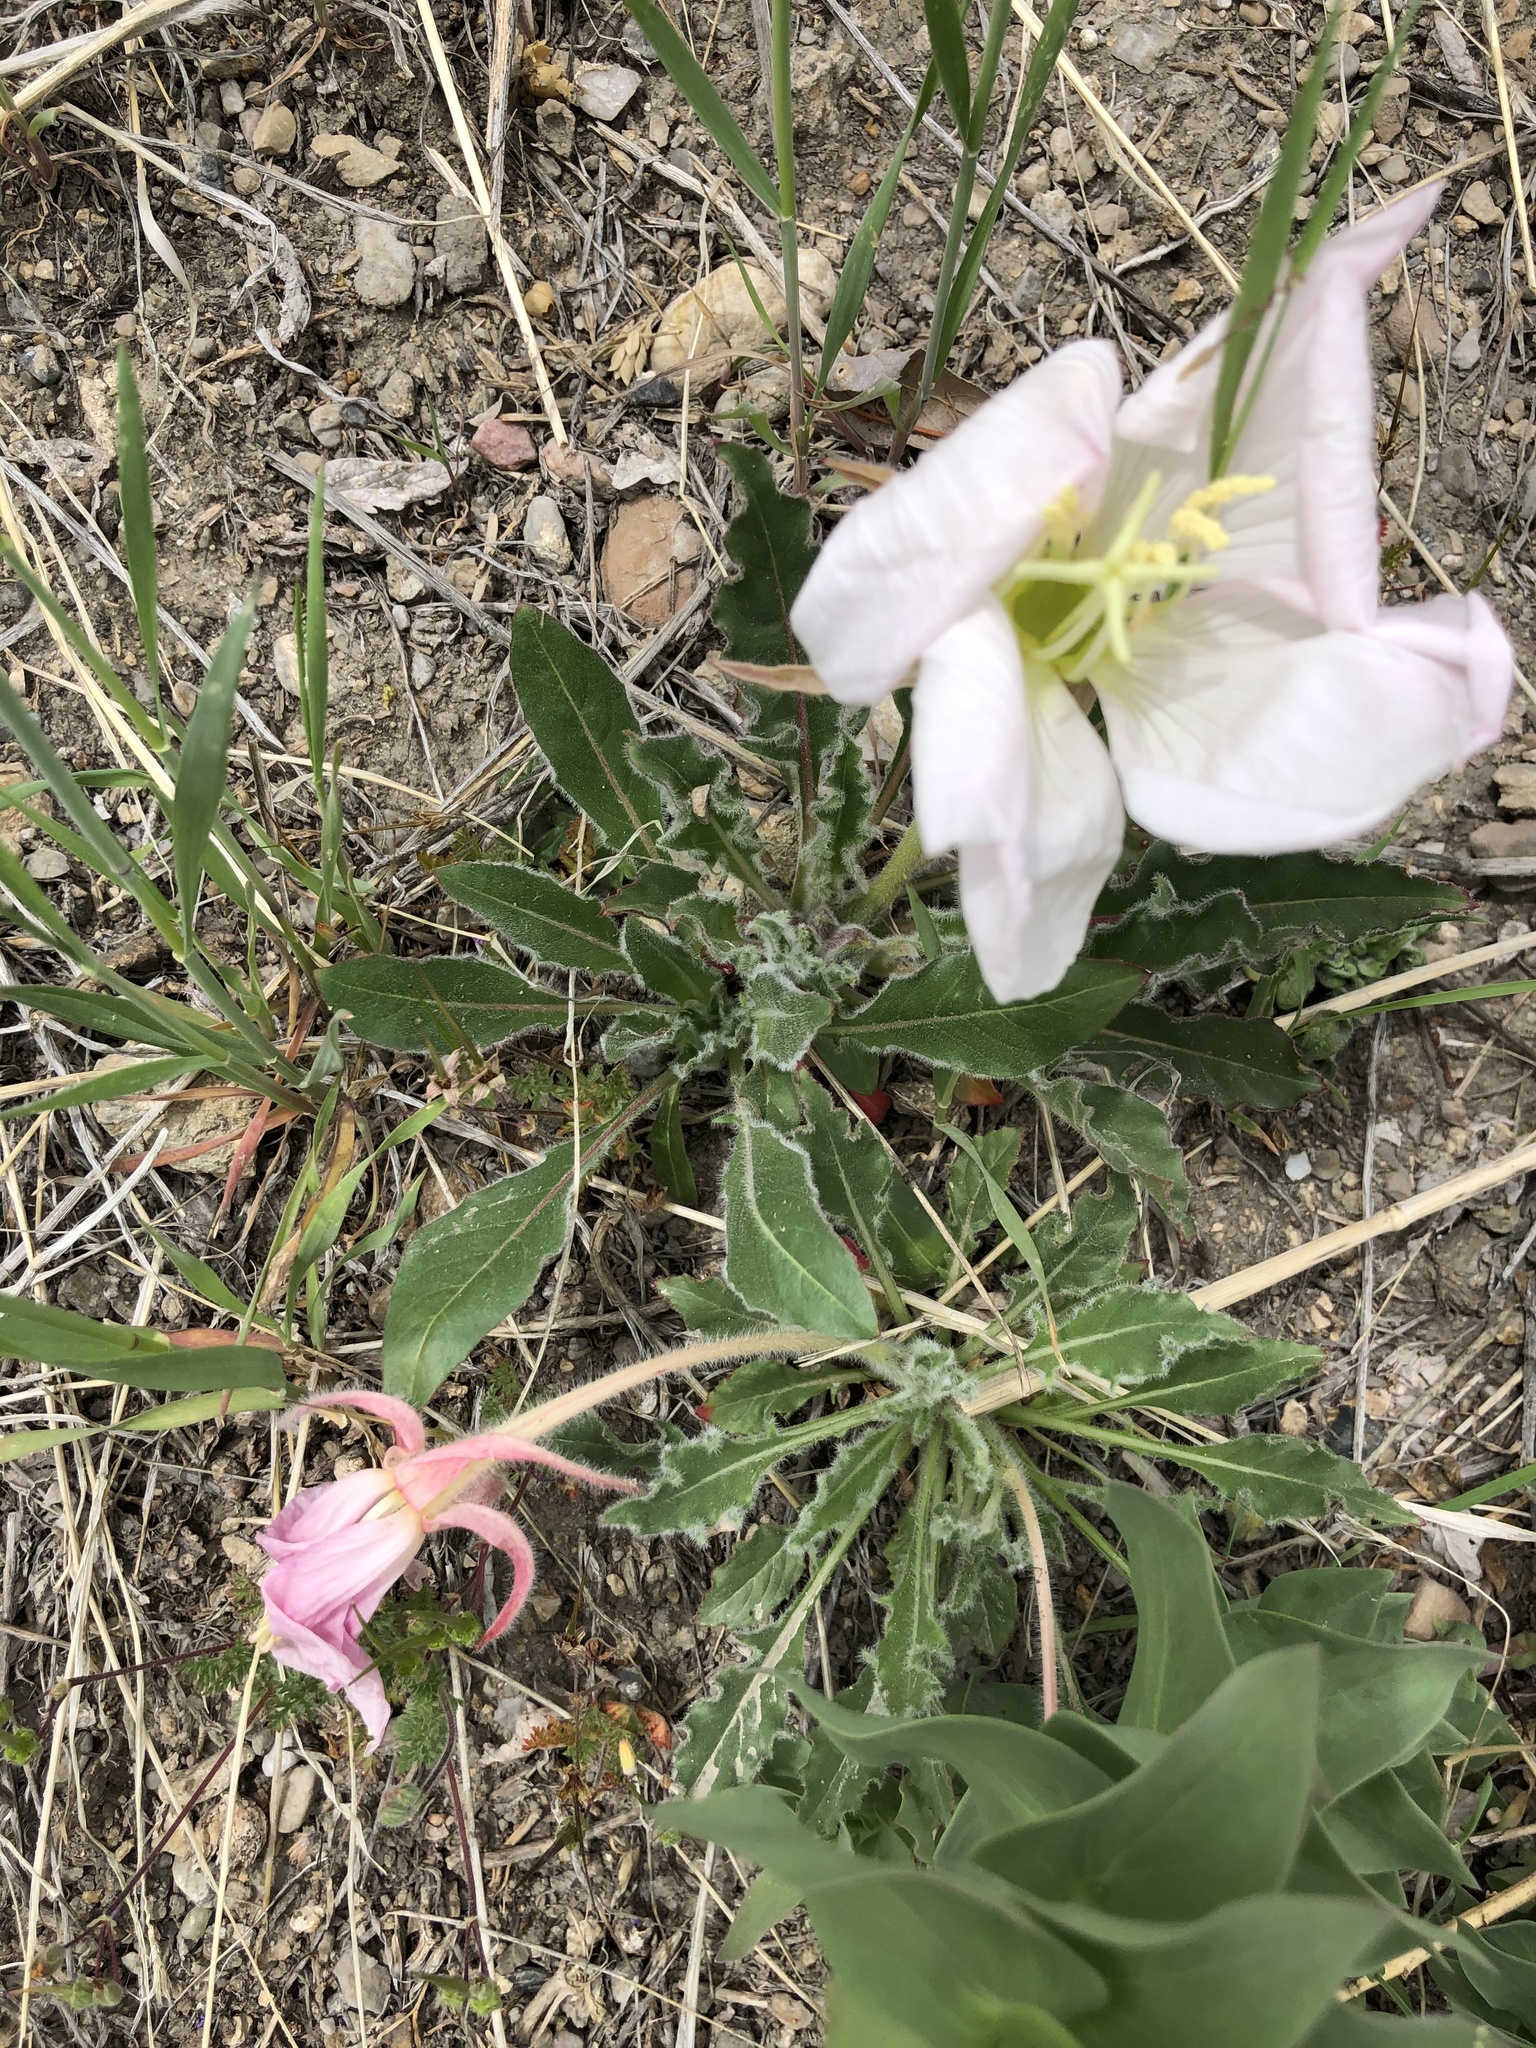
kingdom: Plantae
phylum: Tracheophyta
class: Magnoliopsida
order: Myrtales
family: Onagraceae
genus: Oenothera
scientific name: Oenothera cespitosa
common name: Tufted evening-primrose
